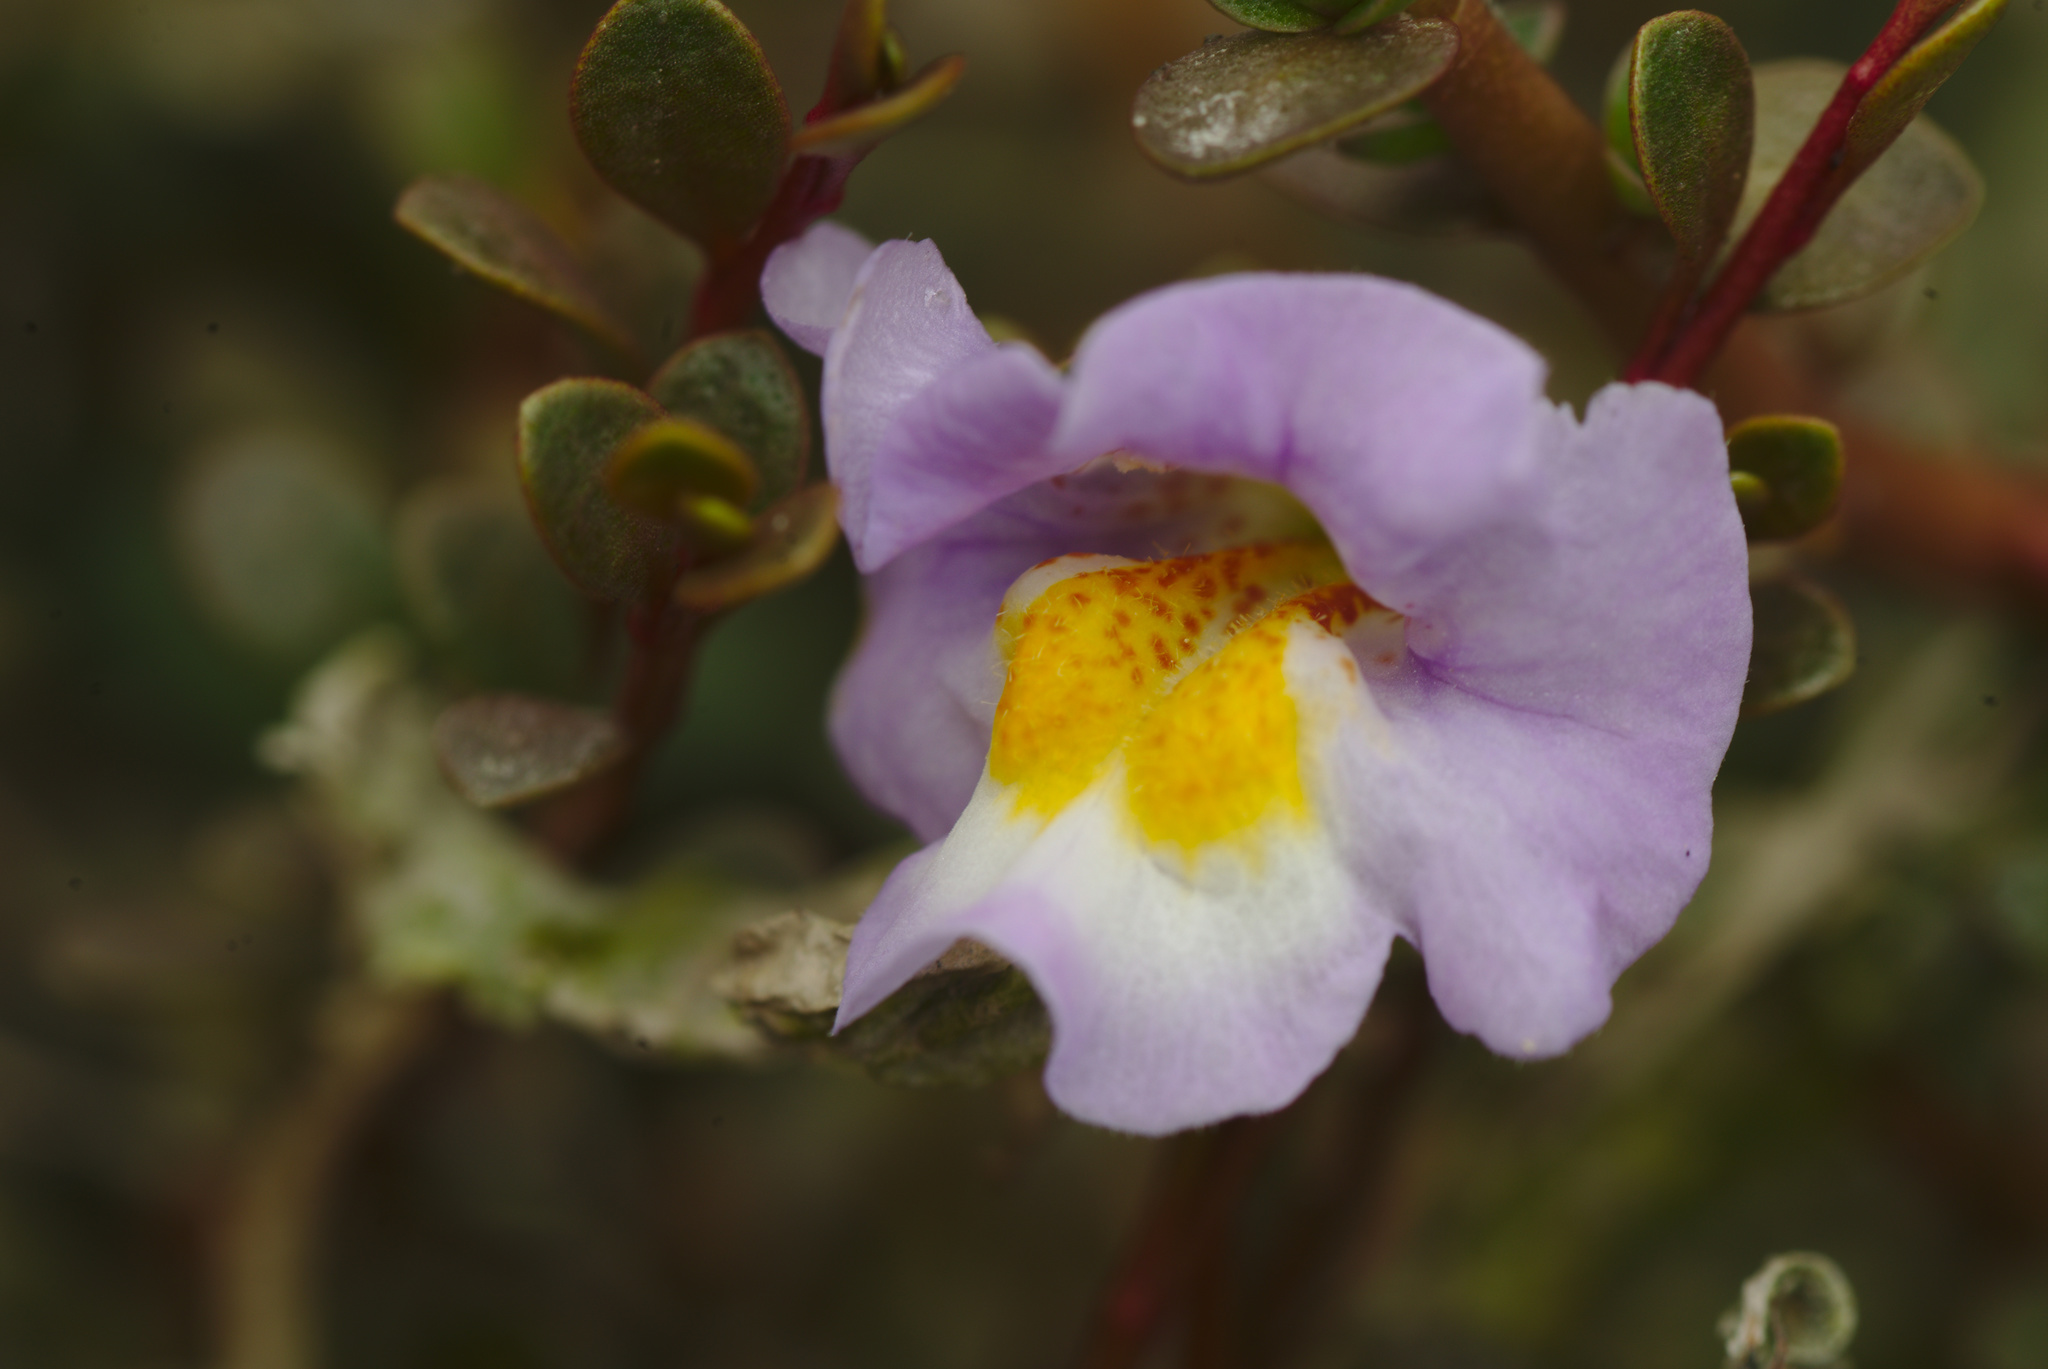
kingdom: Plantae
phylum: Tracheophyta
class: Magnoliopsida
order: Lamiales
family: Phrymaceae
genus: Thyridia
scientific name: Thyridia repens
